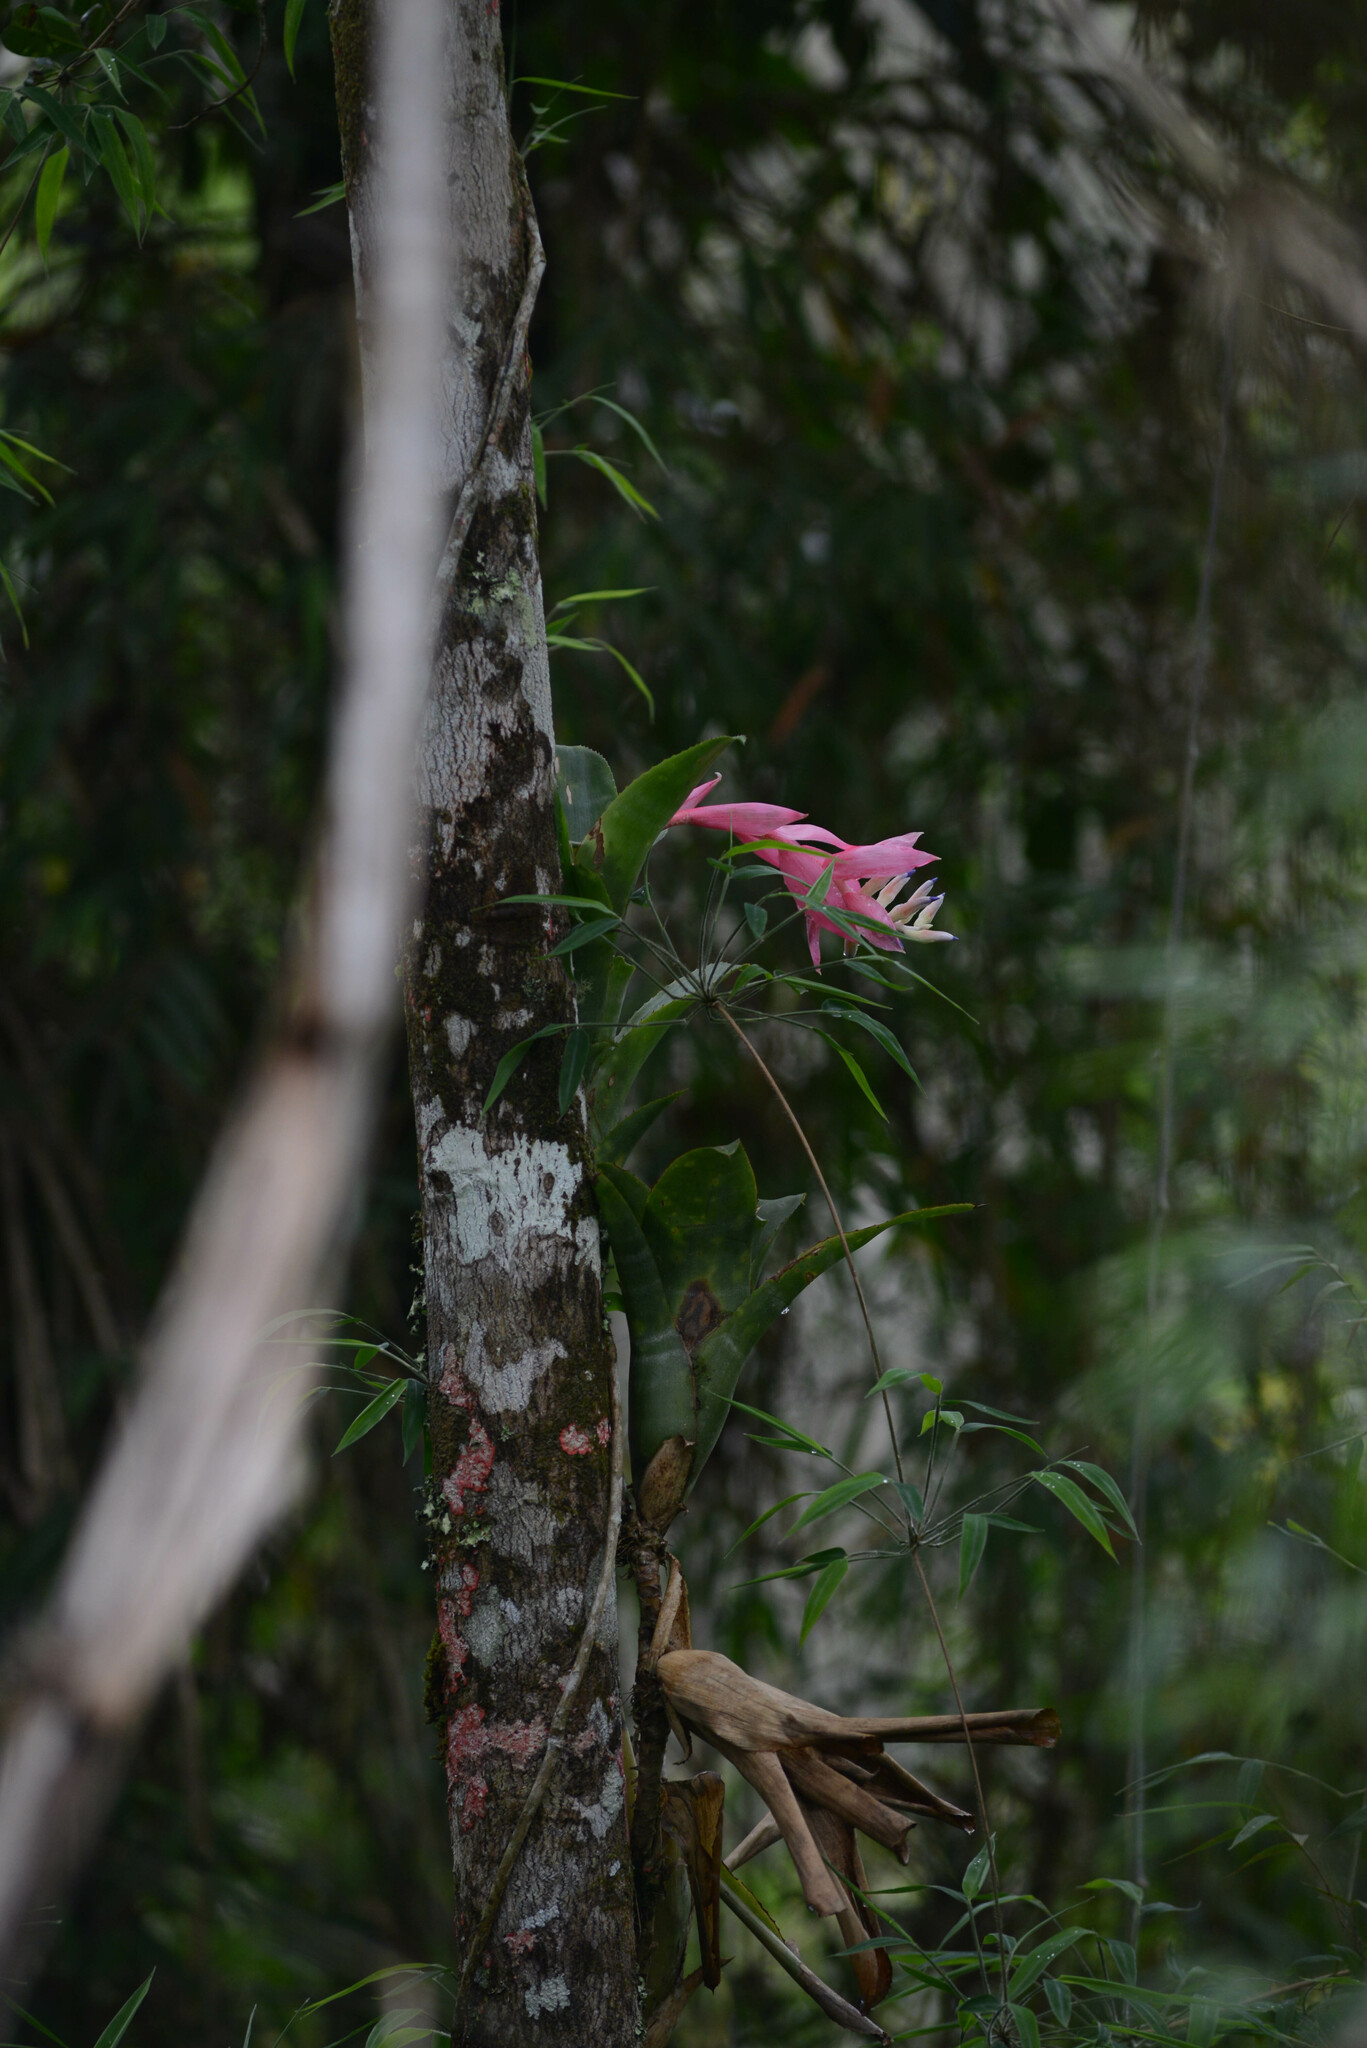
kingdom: Plantae
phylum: Tracheophyta
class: Liliopsida
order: Poales
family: Bromeliaceae
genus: Billbergia
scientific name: Billbergia euphemiae
